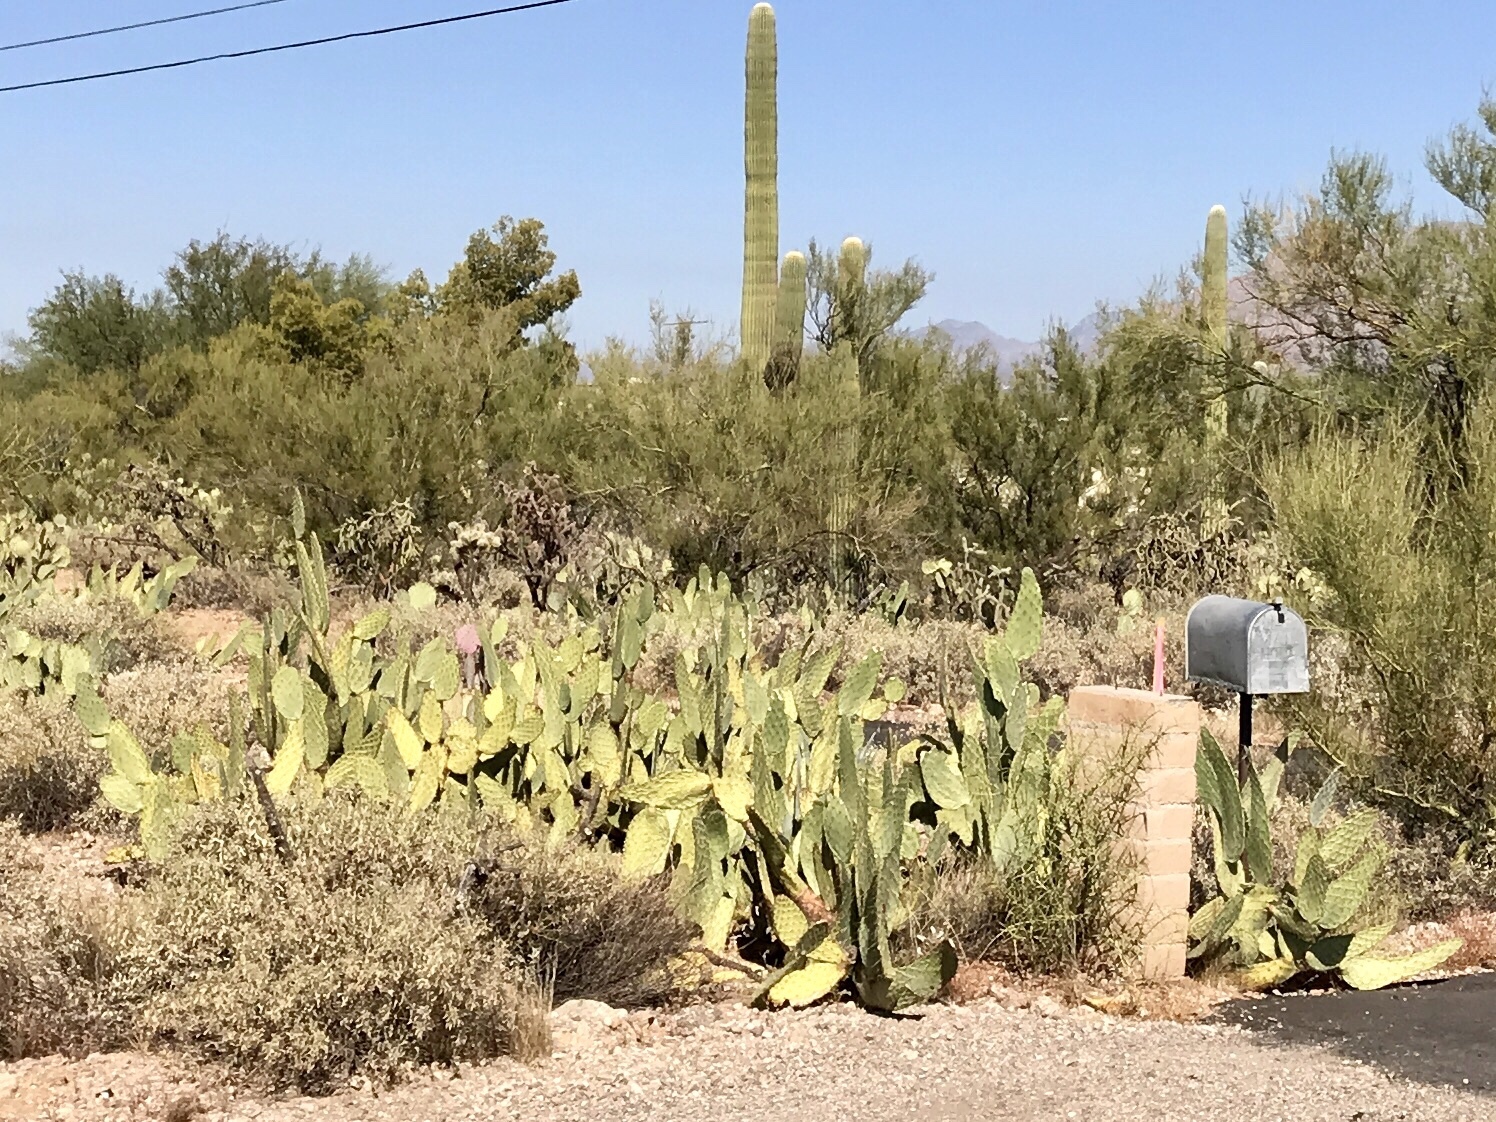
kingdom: Plantae
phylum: Tracheophyta
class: Magnoliopsida
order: Caryophyllales
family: Cactaceae
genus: Opuntia
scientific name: Opuntia engelmannii
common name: Cactus-apple
